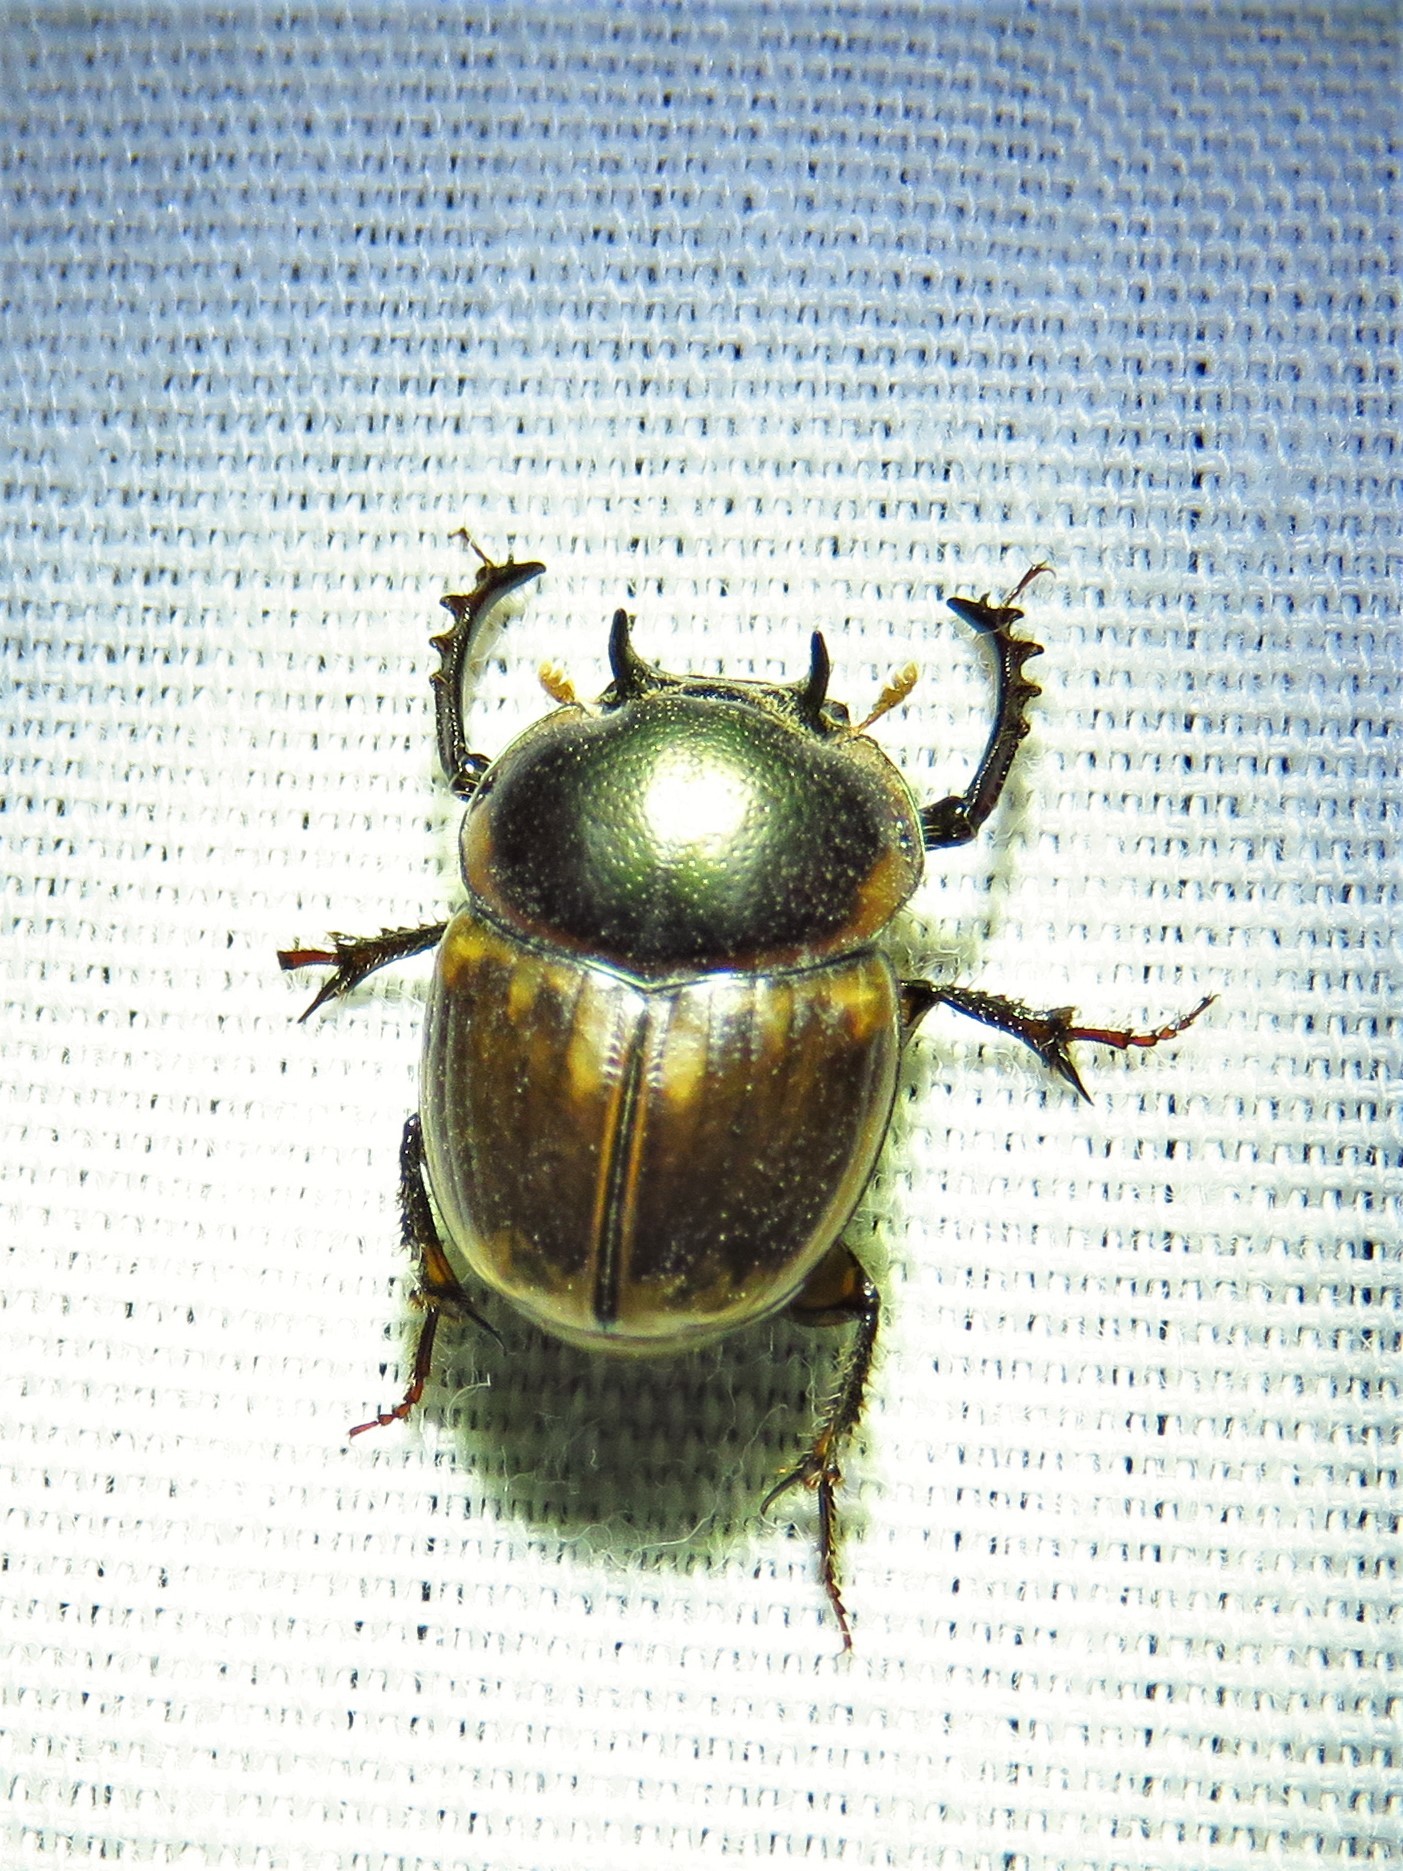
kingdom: Animalia
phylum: Arthropoda
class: Insecta
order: Coleoptera
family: Scarabaeidae
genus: Digitonthophagus
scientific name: Digitonthophagus gazella
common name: Brown dung beetle
